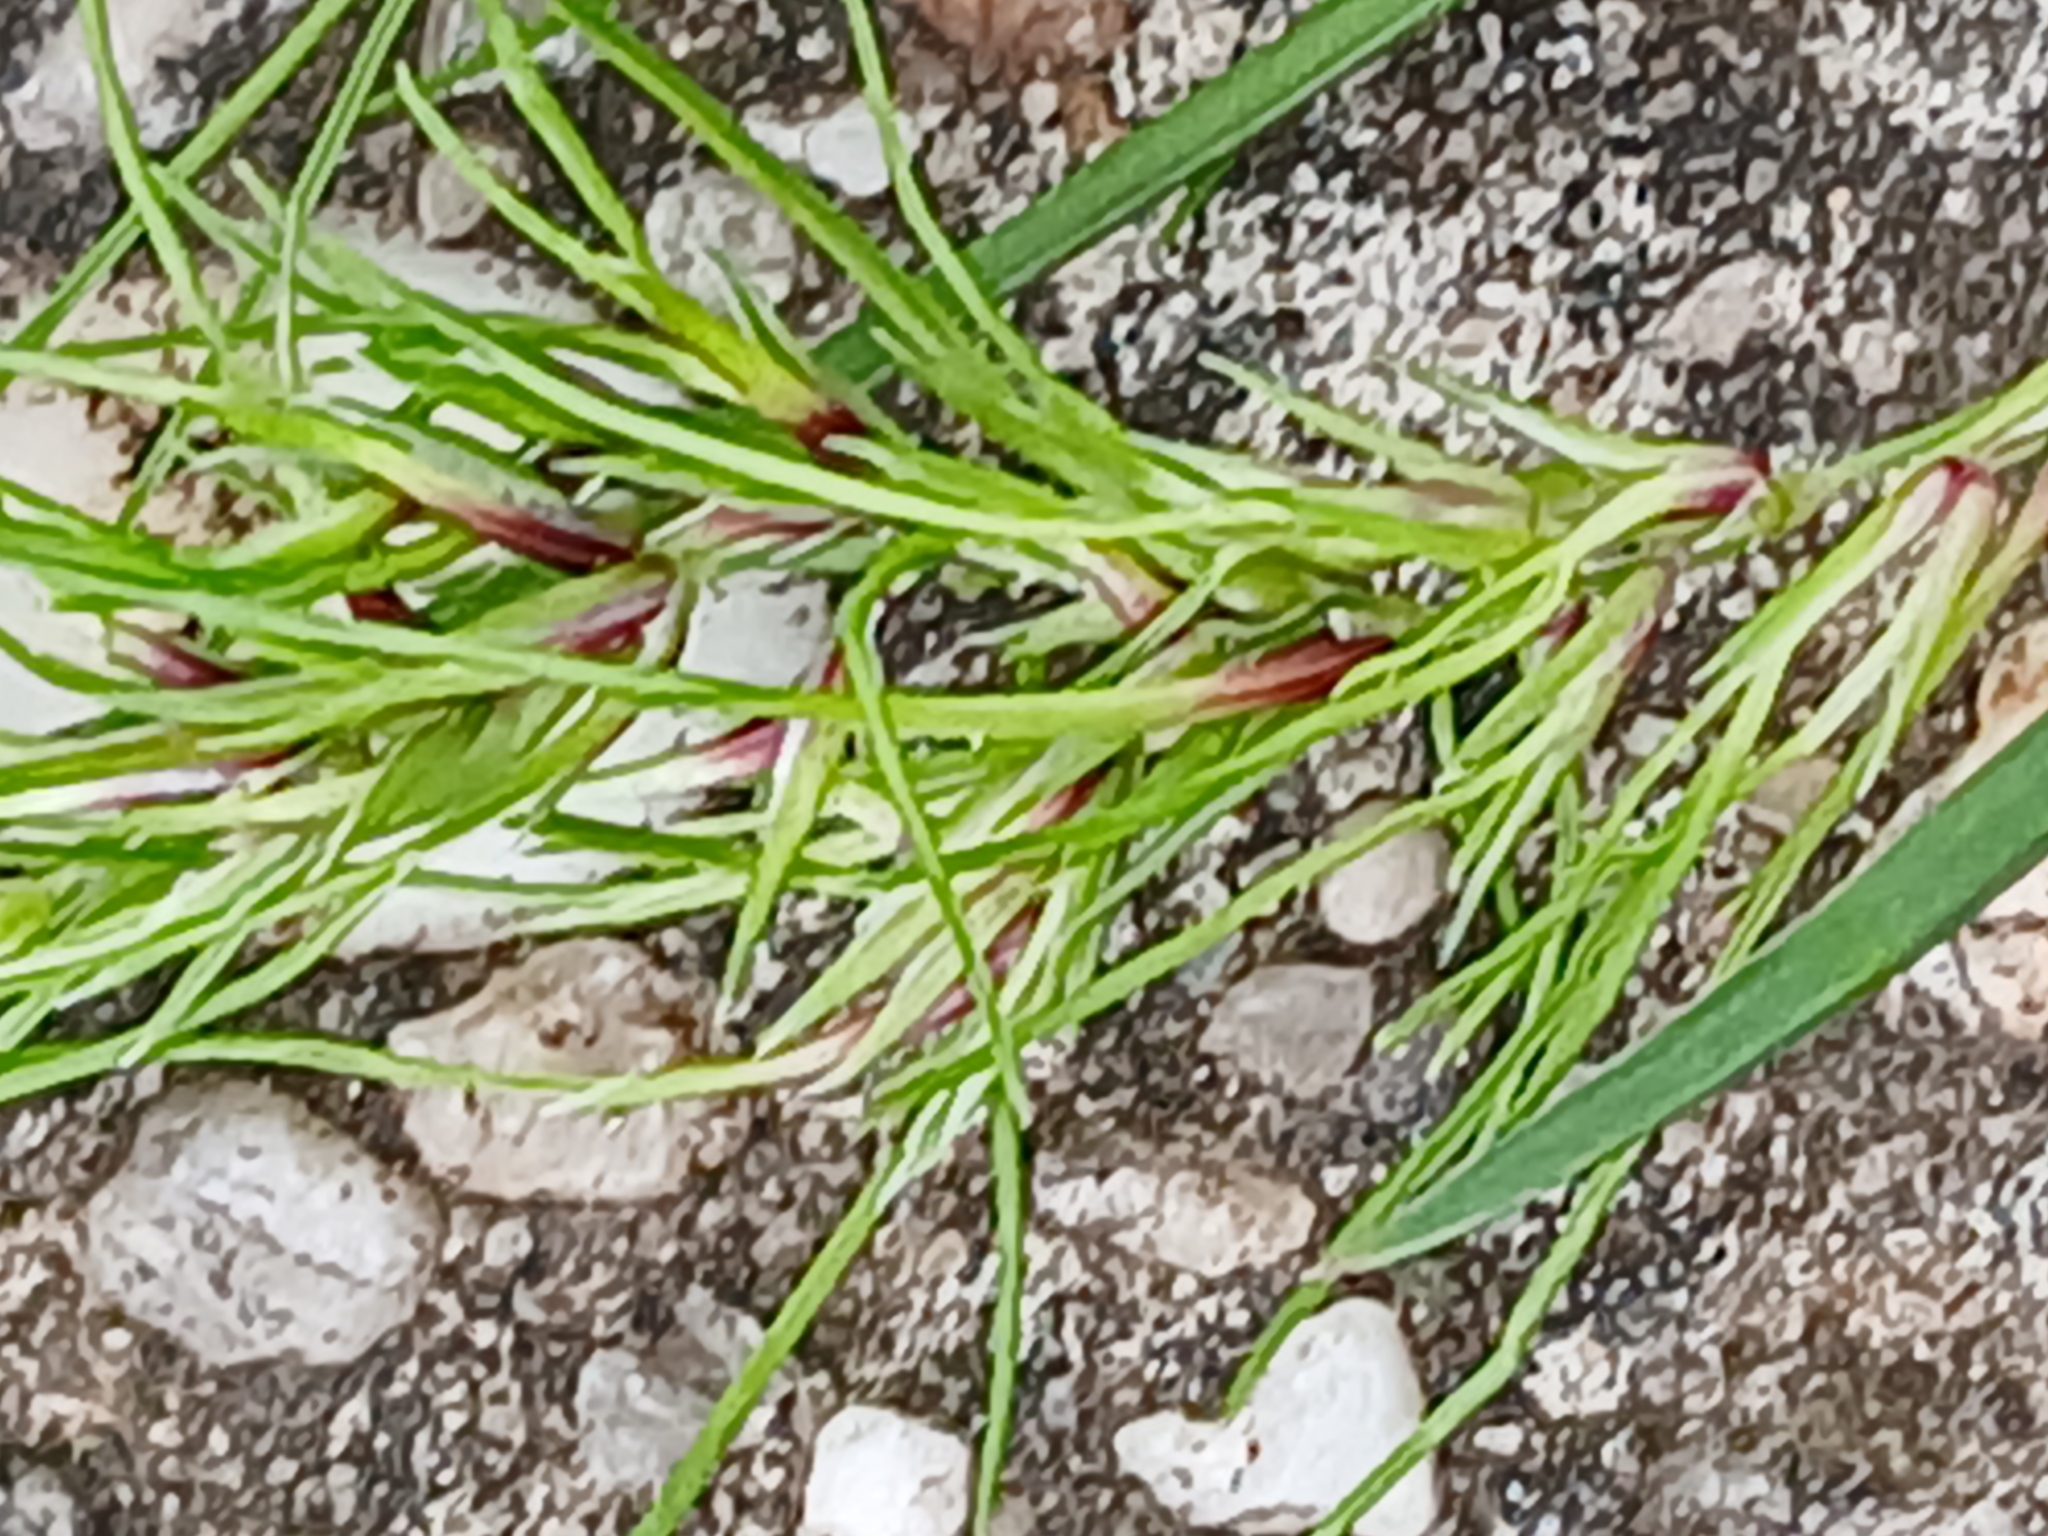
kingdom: Plantae
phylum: Tracheophyta
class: Liliopsida
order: Poales
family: Poaceae
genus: Poa
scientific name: Poa bulbosa
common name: Bulbous bluegrass
